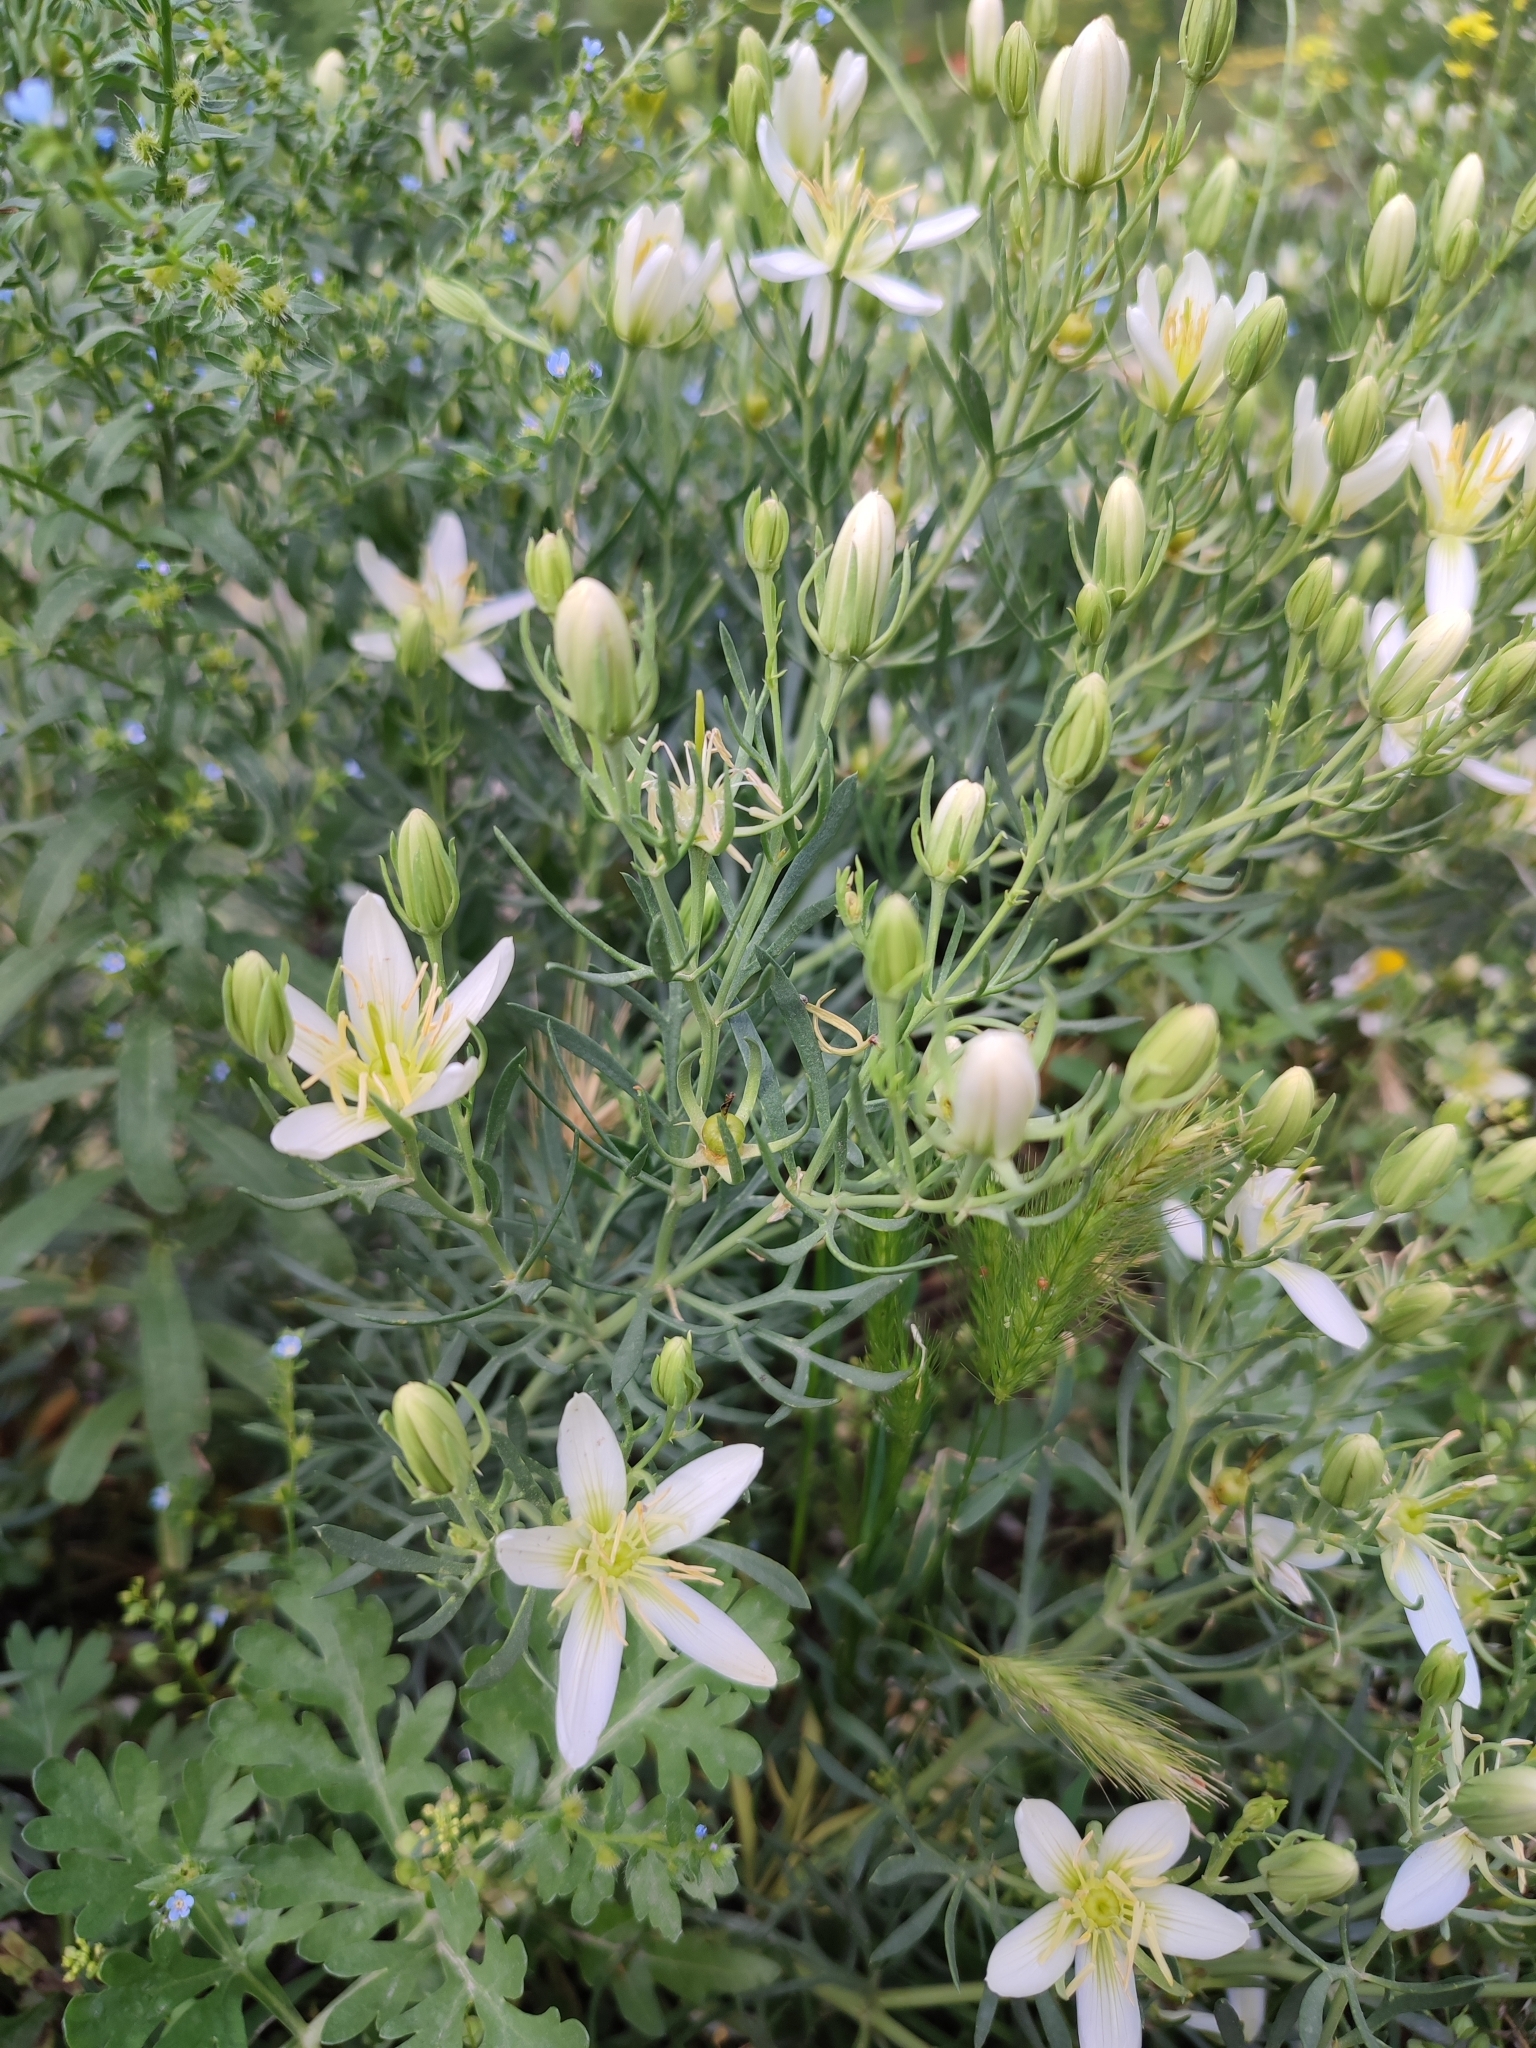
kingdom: Plantae
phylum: Tracheophyta
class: Magnoliopsida
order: Sapindales
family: Tetradiclidaceae
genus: Peganum
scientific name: Peganum harmala
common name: Harmal peganum
